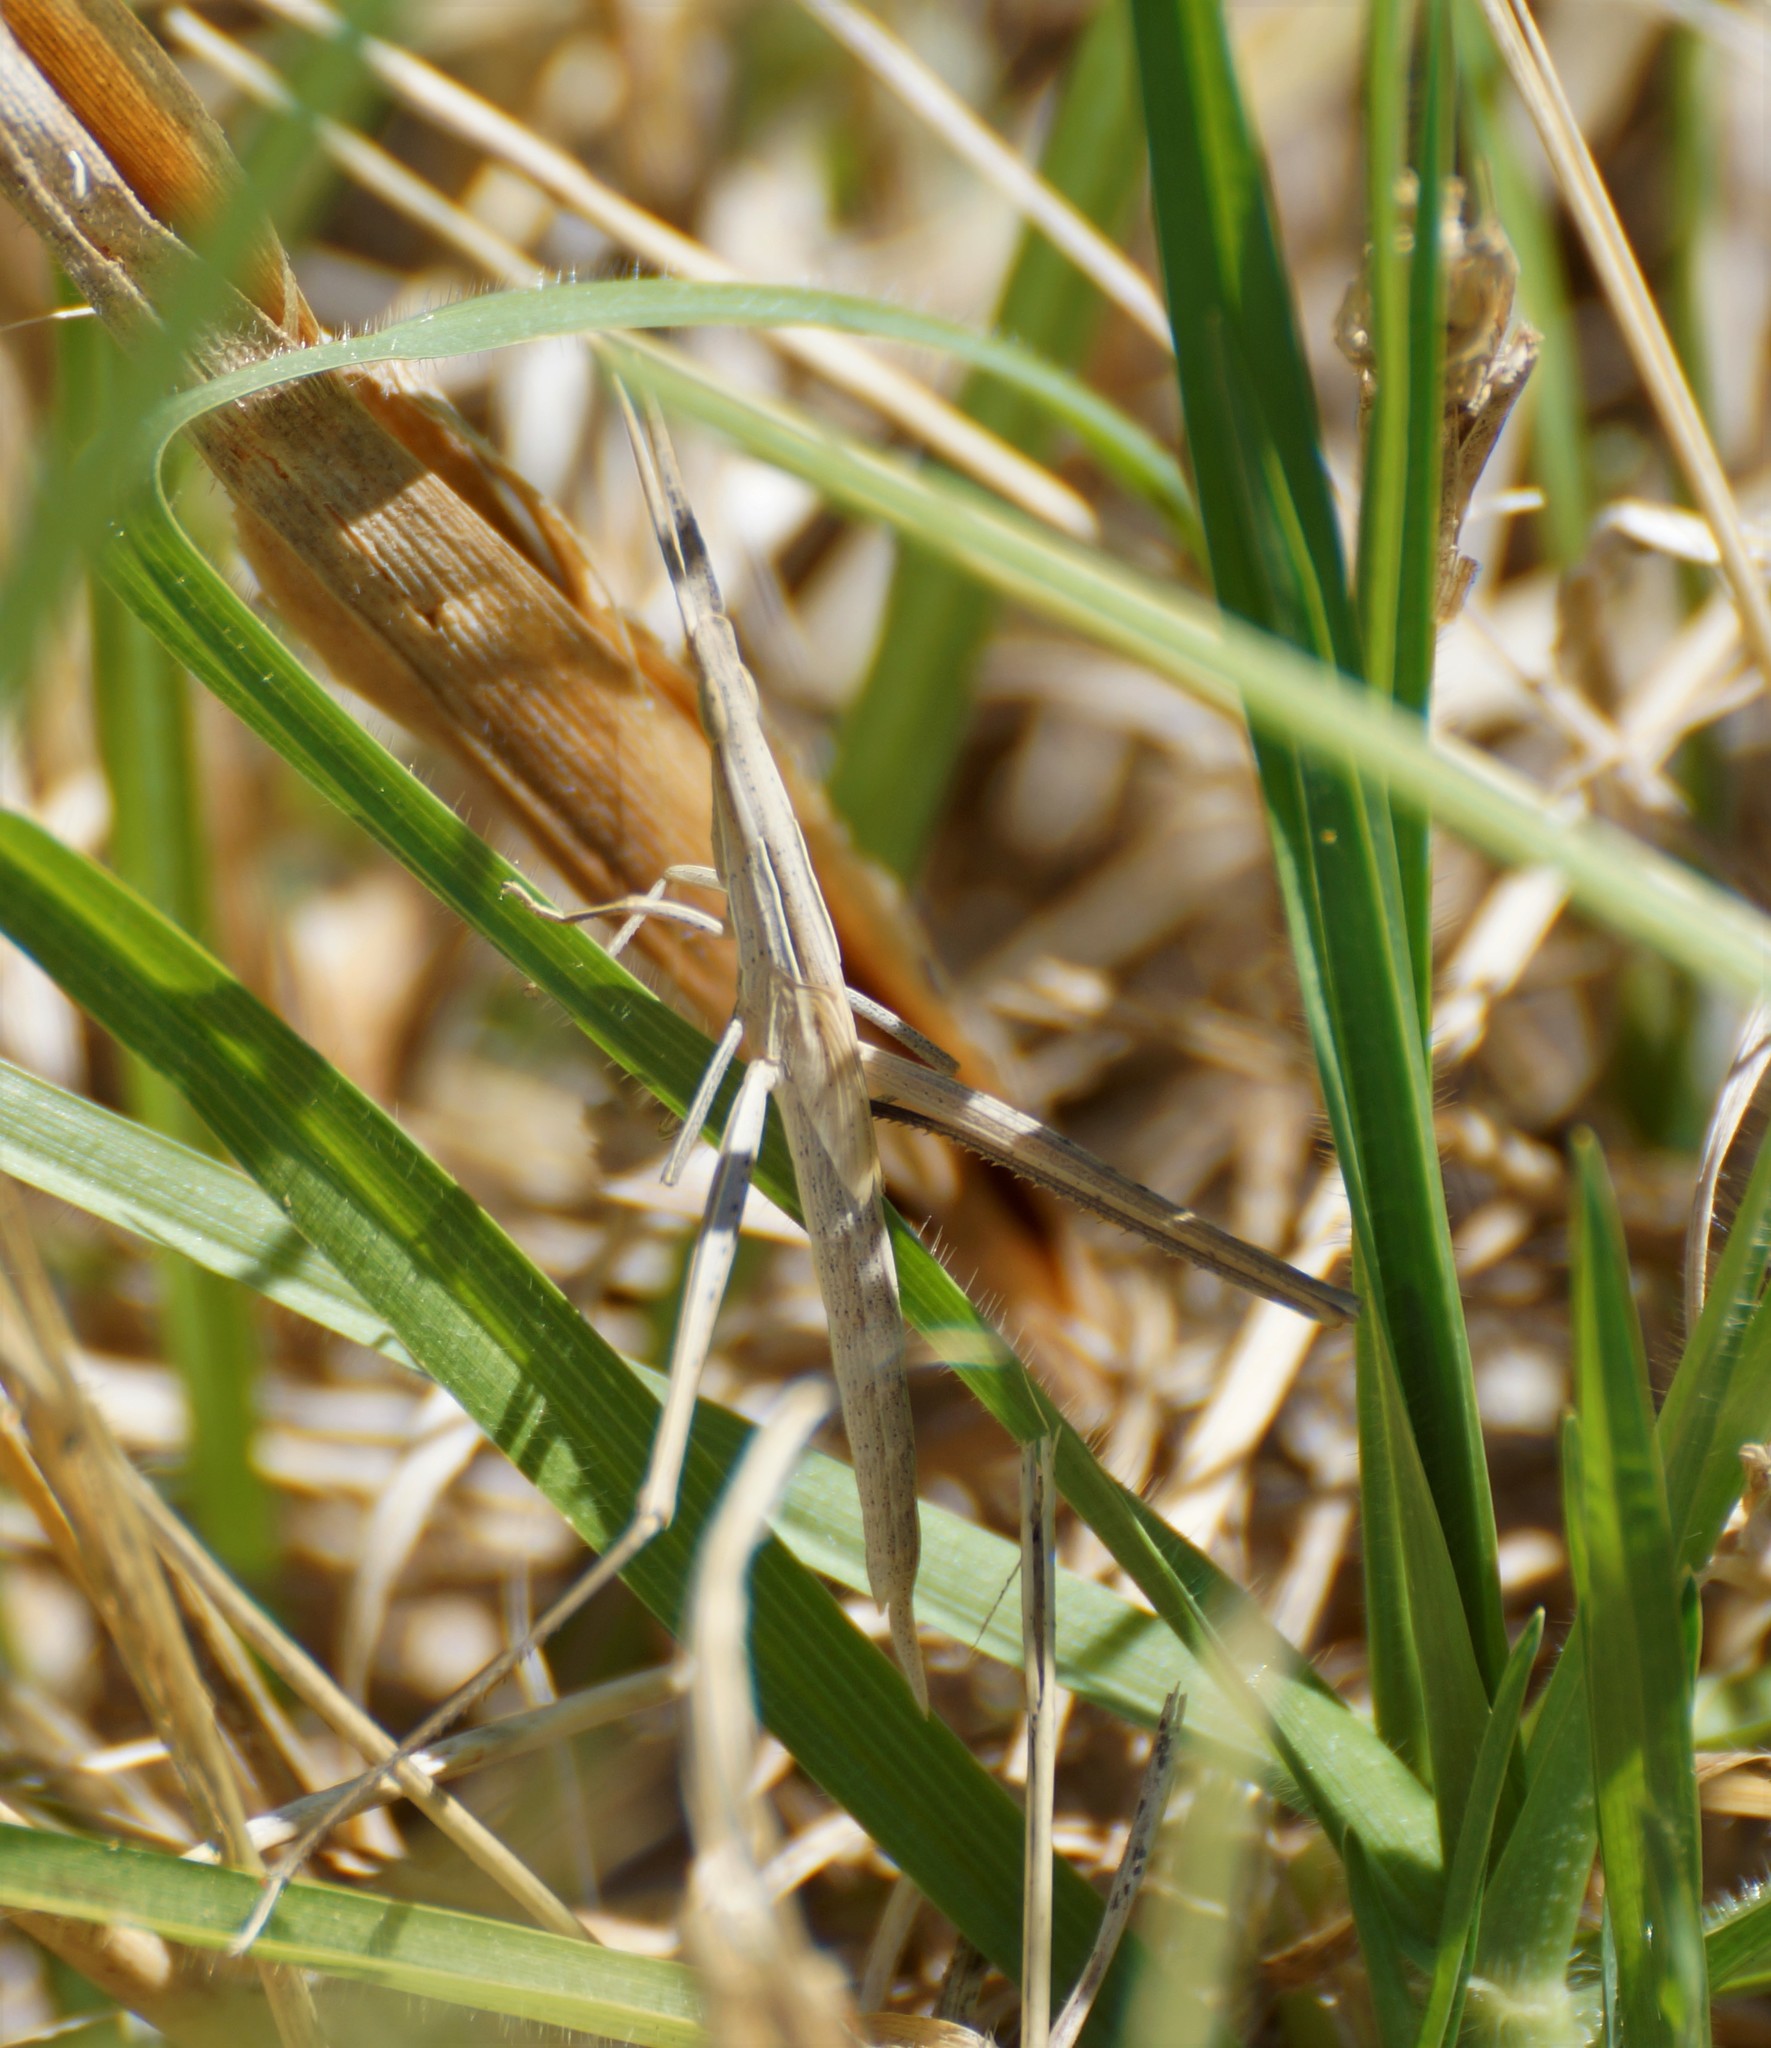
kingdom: Animalia
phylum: Arthropoda
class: Insecta
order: Orthoptera
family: Acrididae
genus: Acrida
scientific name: Acrida conica
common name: Giant green slantface
